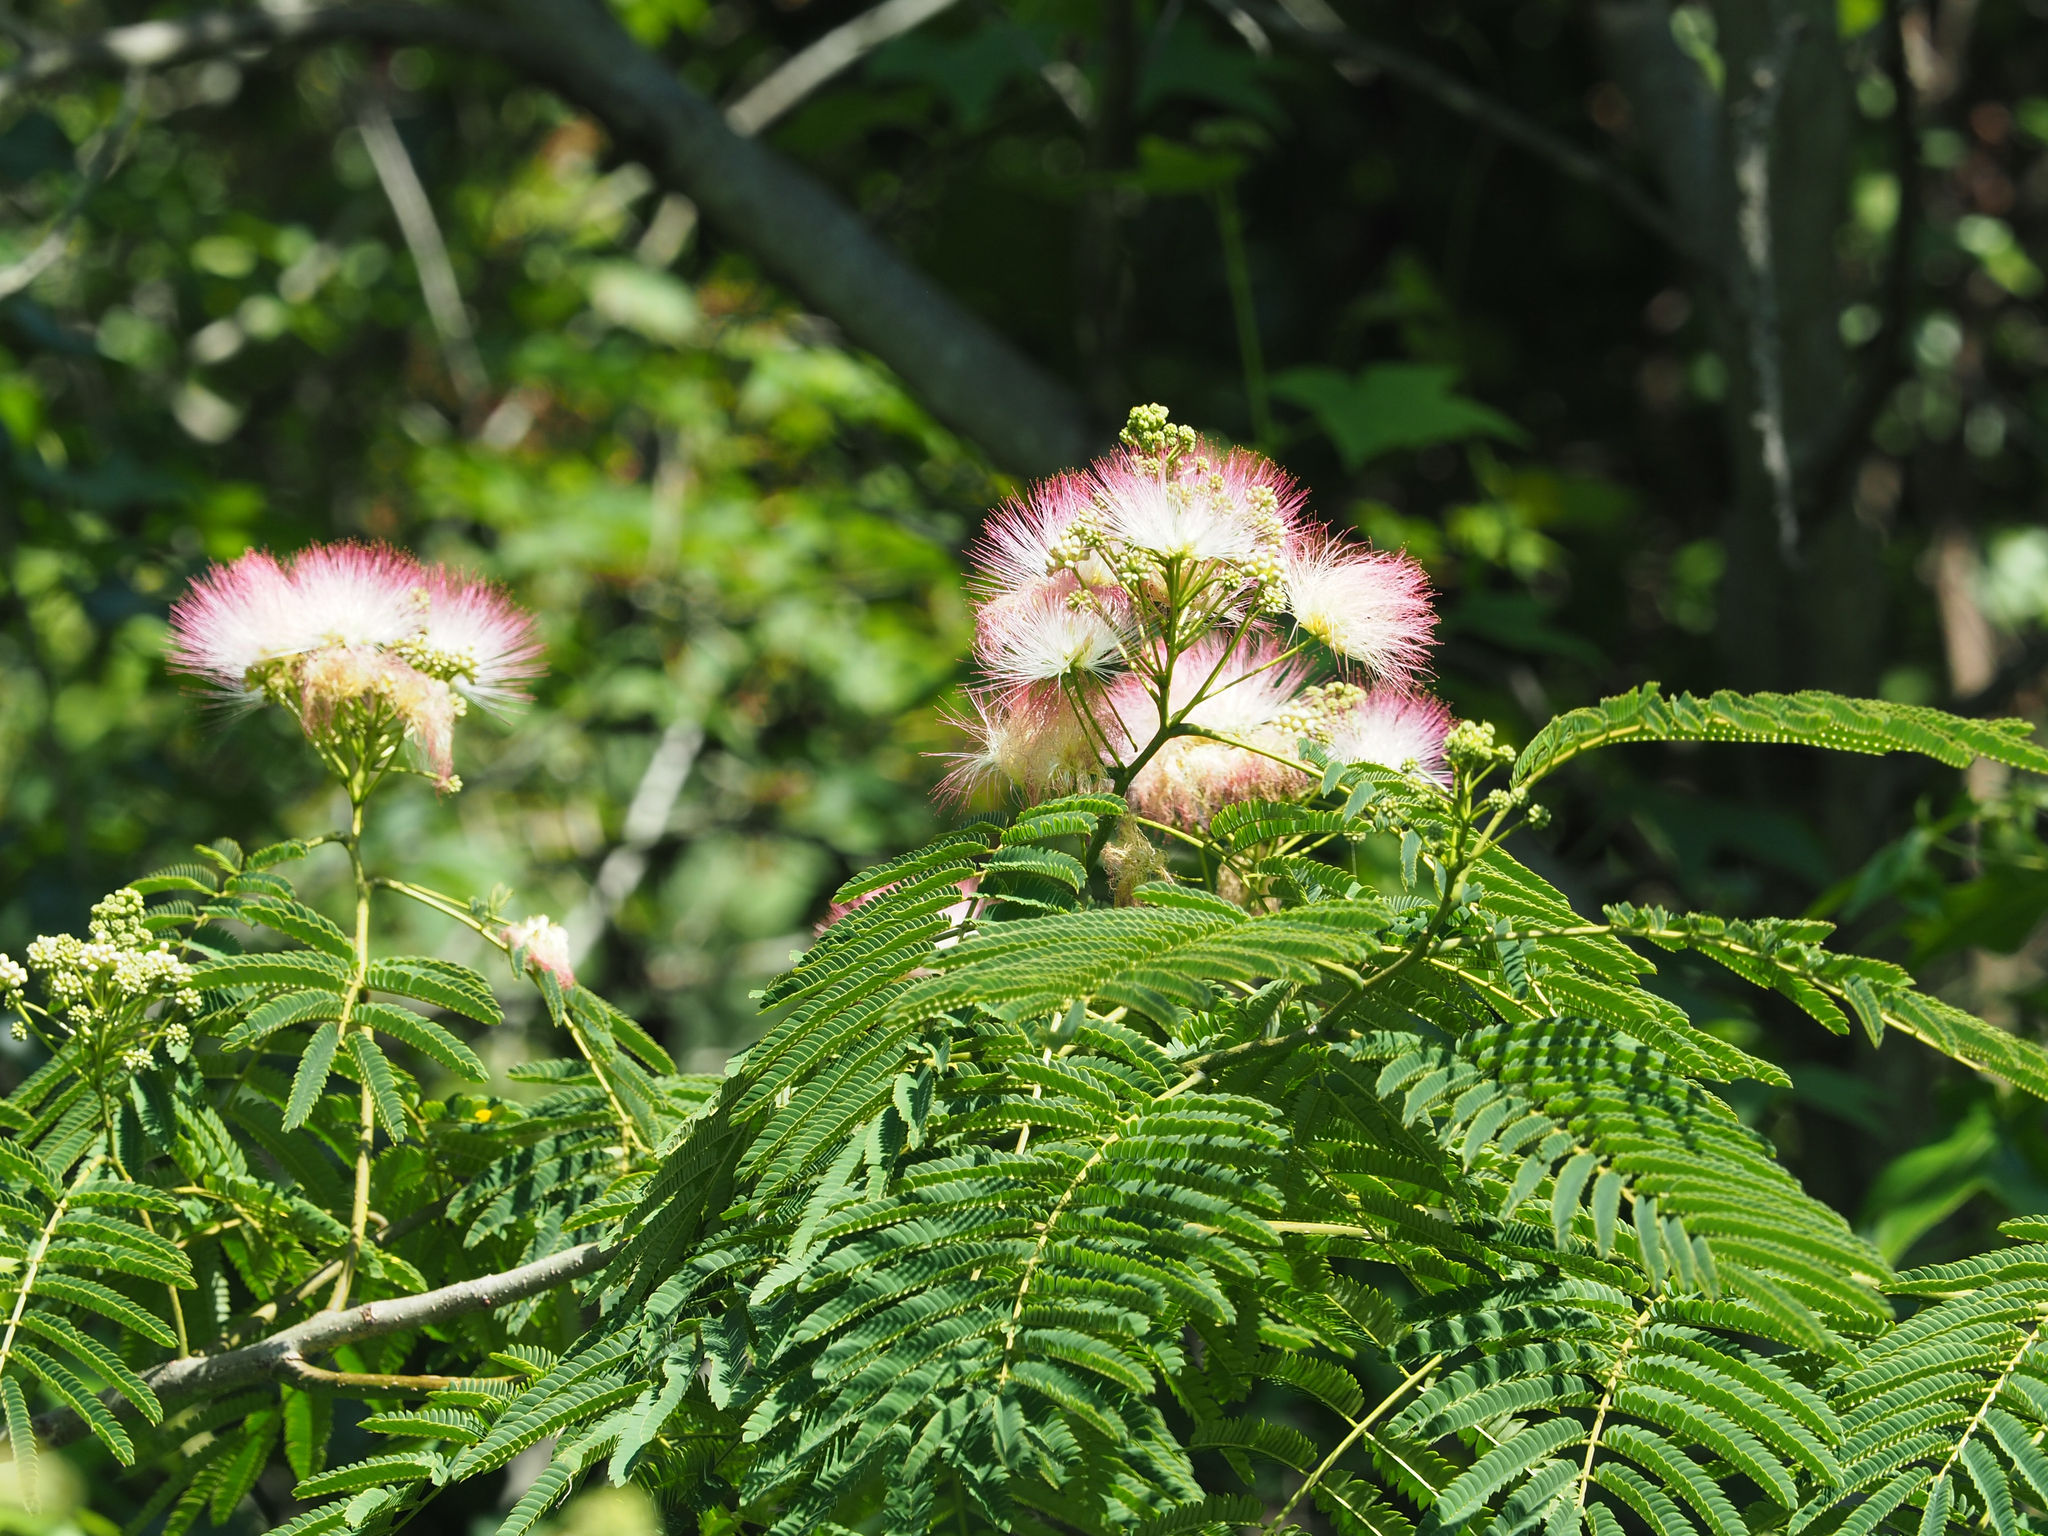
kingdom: Plantae
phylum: Tracheophyta
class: Magnoliopsida
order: Fabales
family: Fabaceae
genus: Albizia
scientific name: Albizia julibrissin
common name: Silktree
